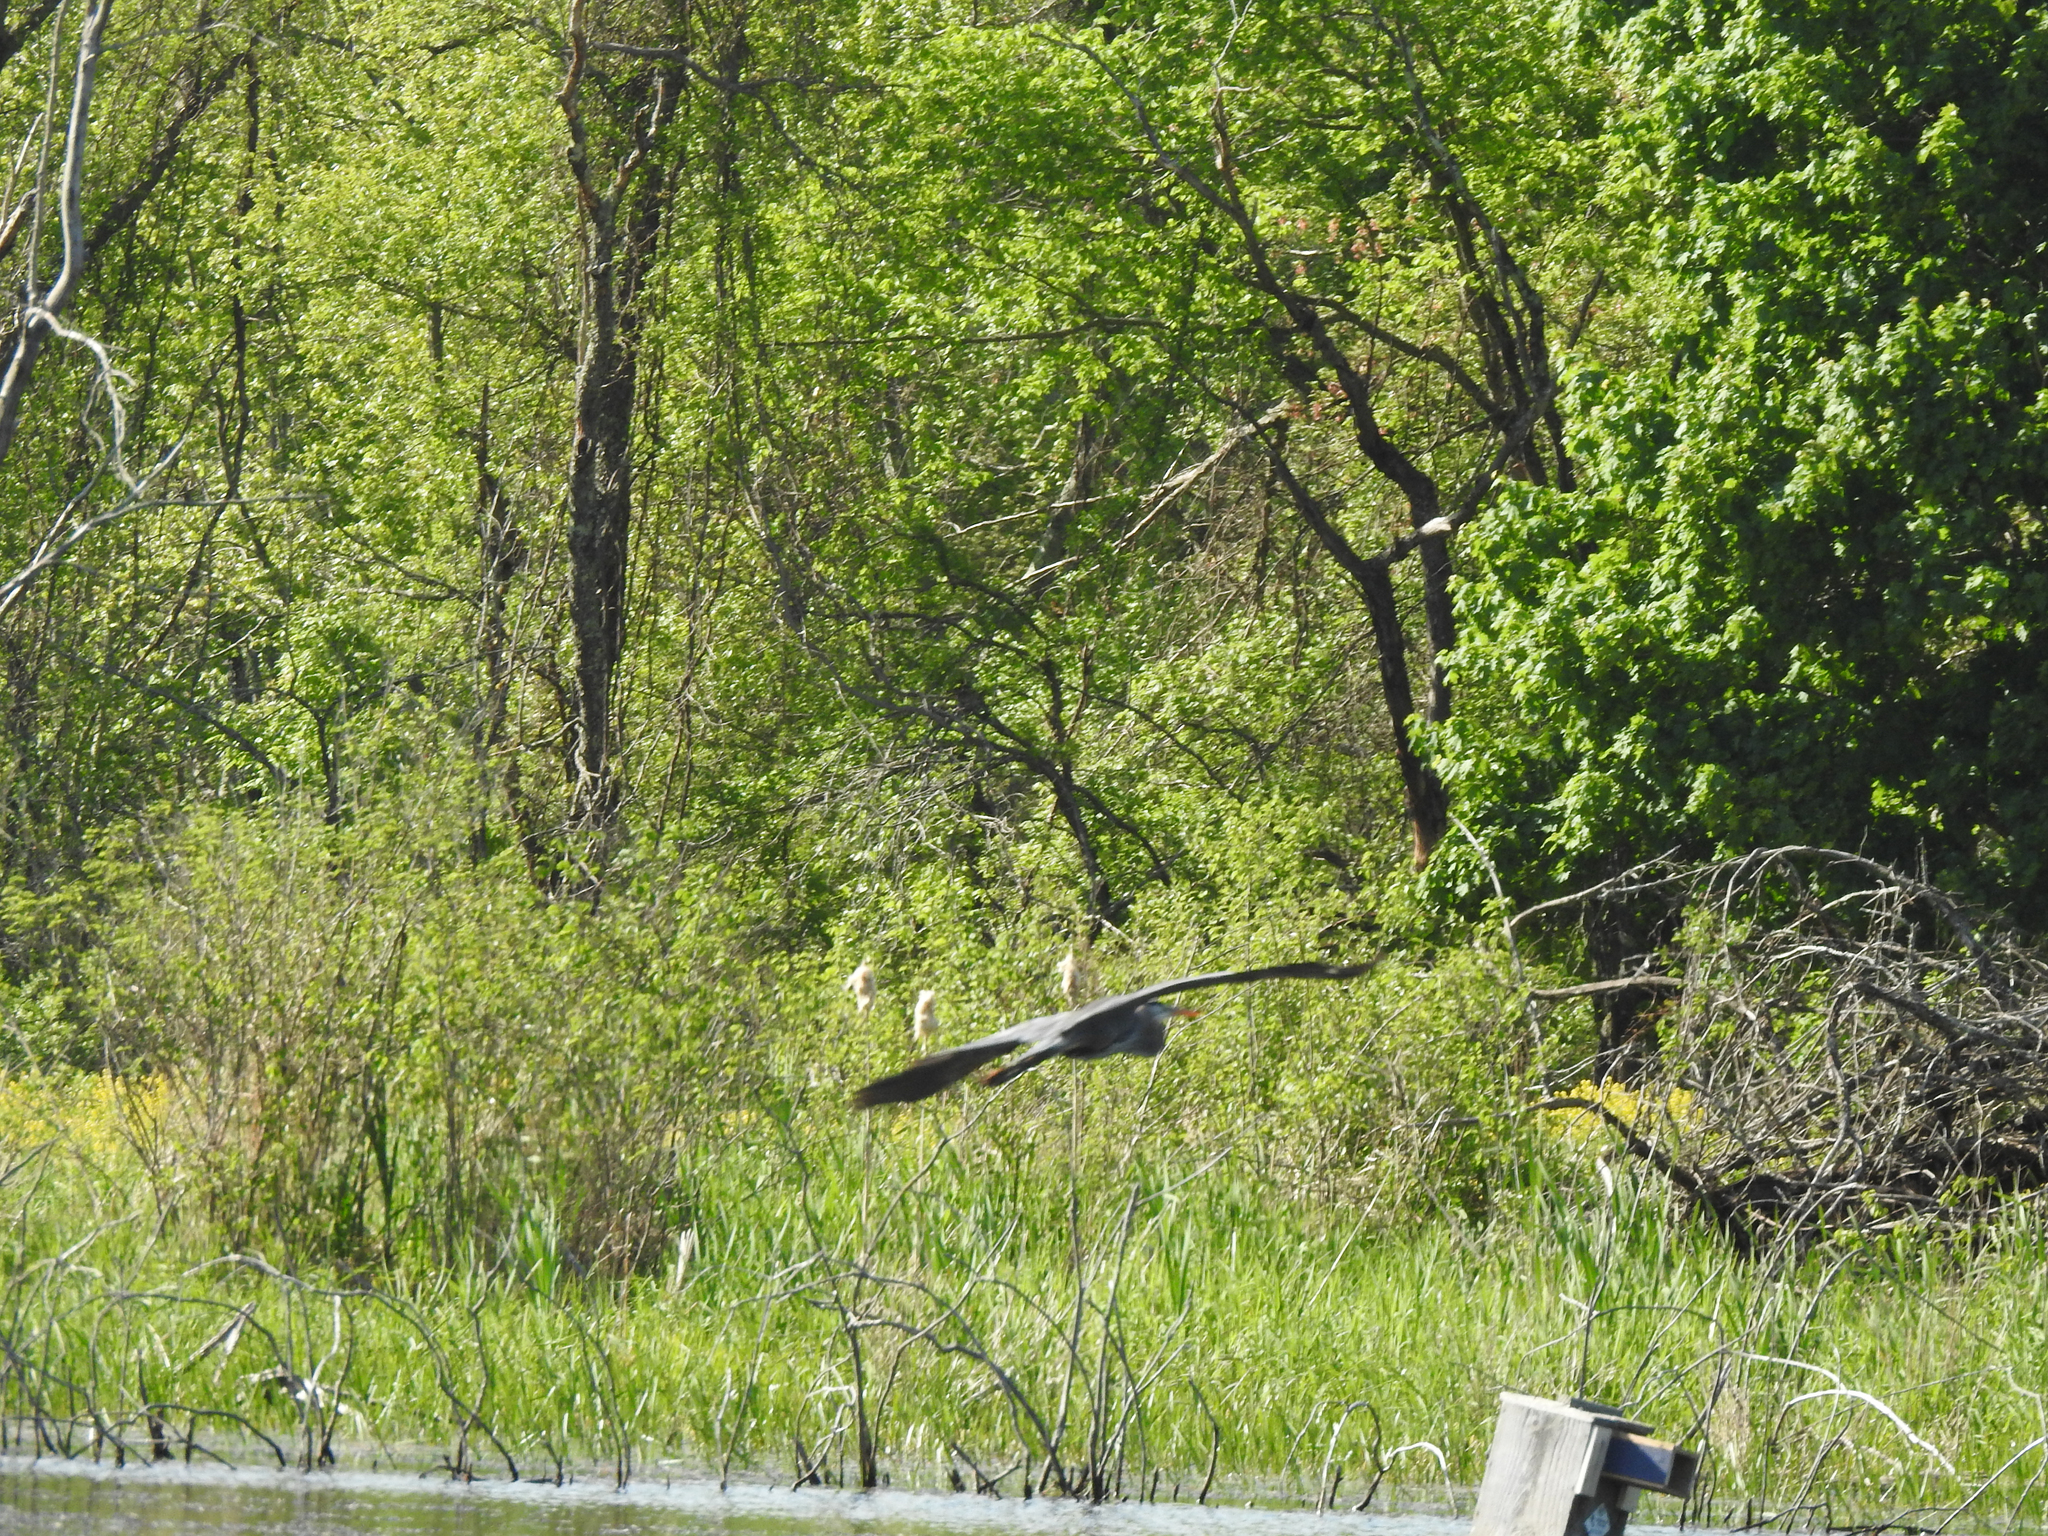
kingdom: Animalia
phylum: Chordata
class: Aves
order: Pelecaniformes
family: Ardeidae
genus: Ardea
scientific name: Ardea herodias
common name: Great blue heron
